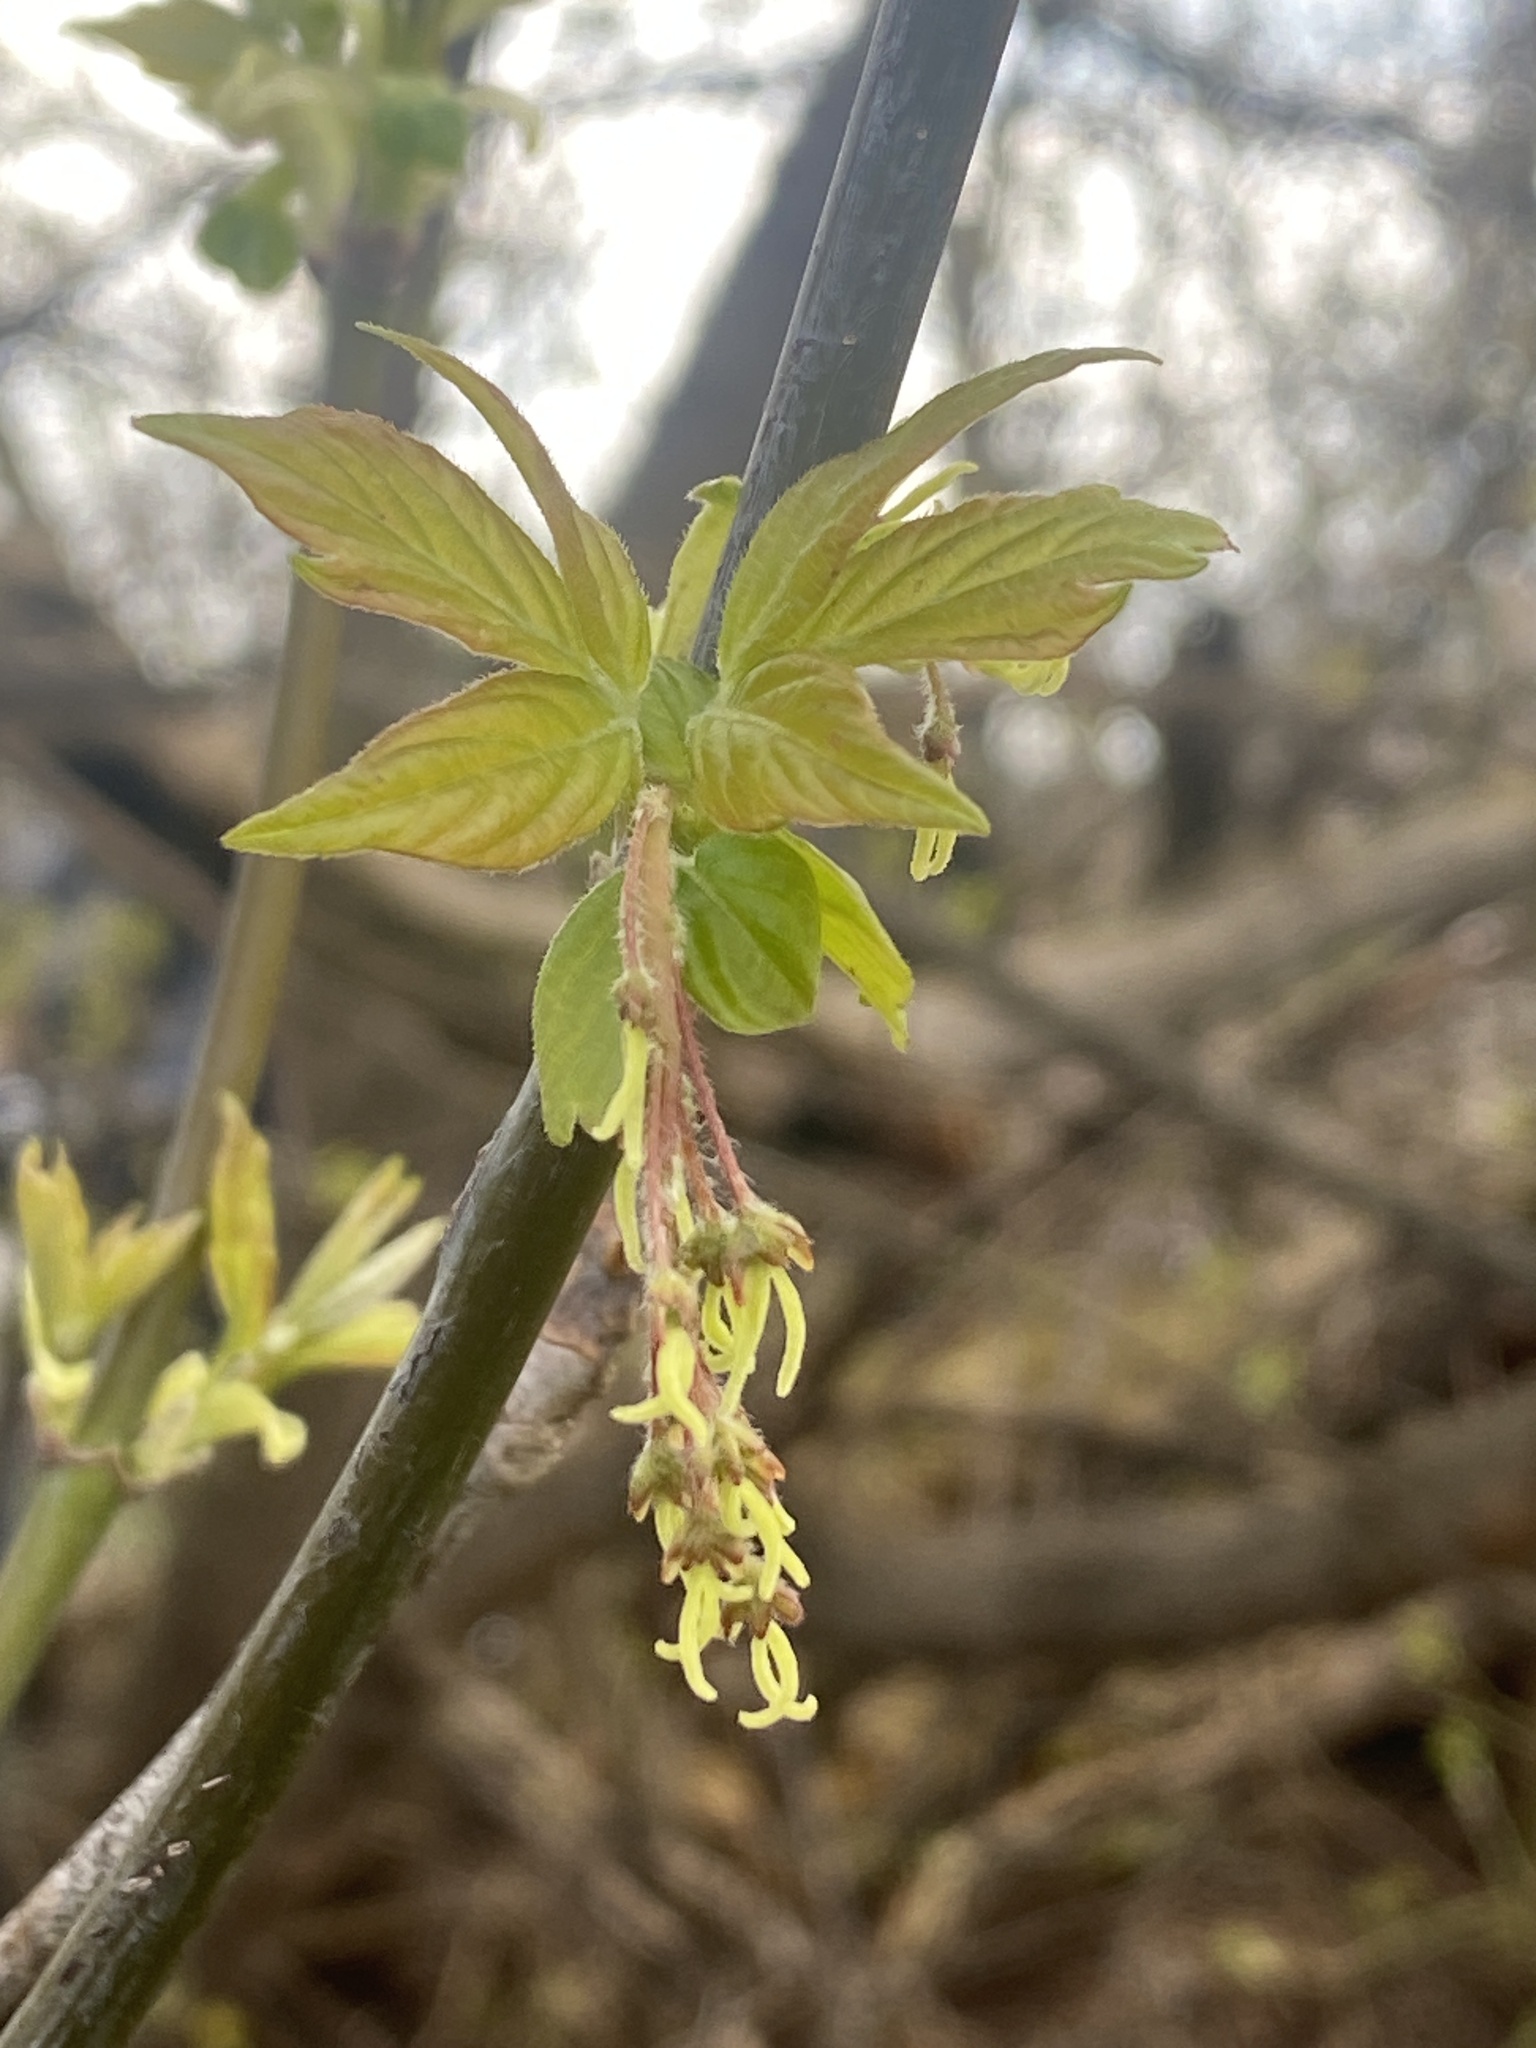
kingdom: Plantae
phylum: Tracheophyta
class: Magnoliopsida
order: Sapindales
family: Sapindaceae
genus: Acer
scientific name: Acer negundo
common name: Ashleaf maple
